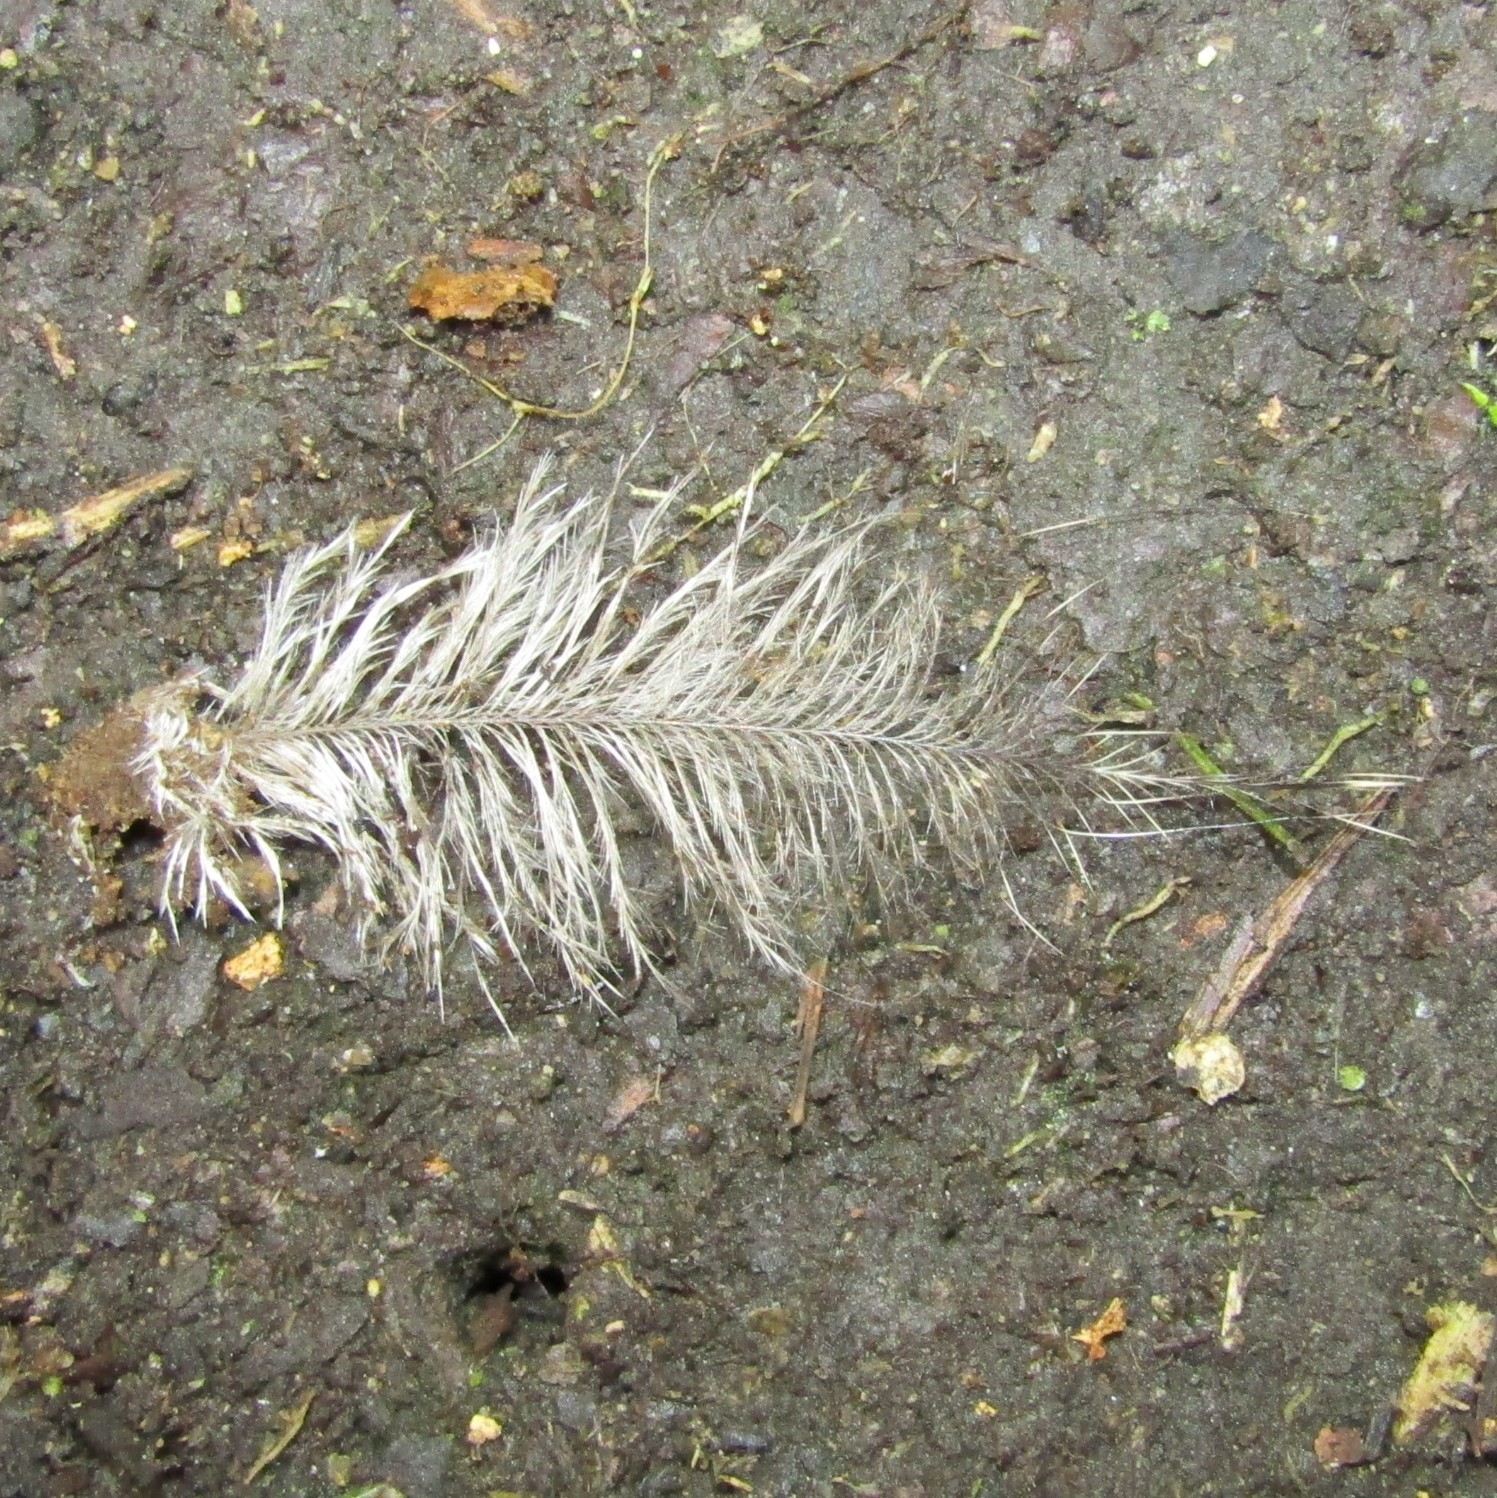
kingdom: Animalia
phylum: Chordata
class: Aves
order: Apterygiformes
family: Apterygidae
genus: Apteryx
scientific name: Apteryx owenii
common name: Little spotted kiwi
